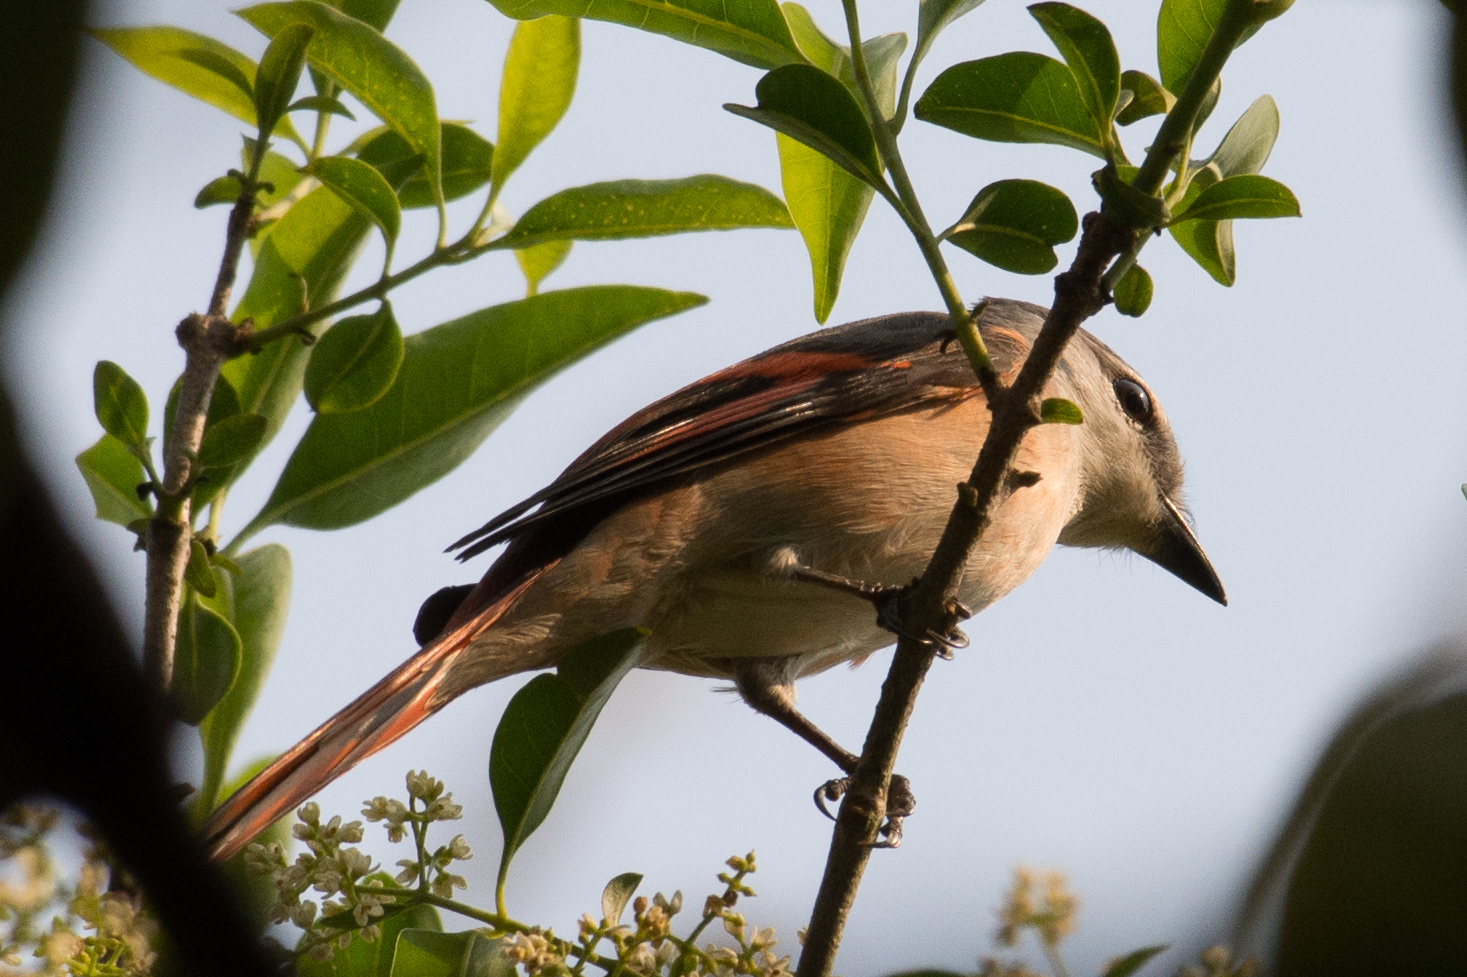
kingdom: Animalia
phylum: Chordata
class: Aves
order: Passeriformes
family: Campephagidae
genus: Pericrocotus
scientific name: Pericrocotus roseus
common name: Rosy minivet
